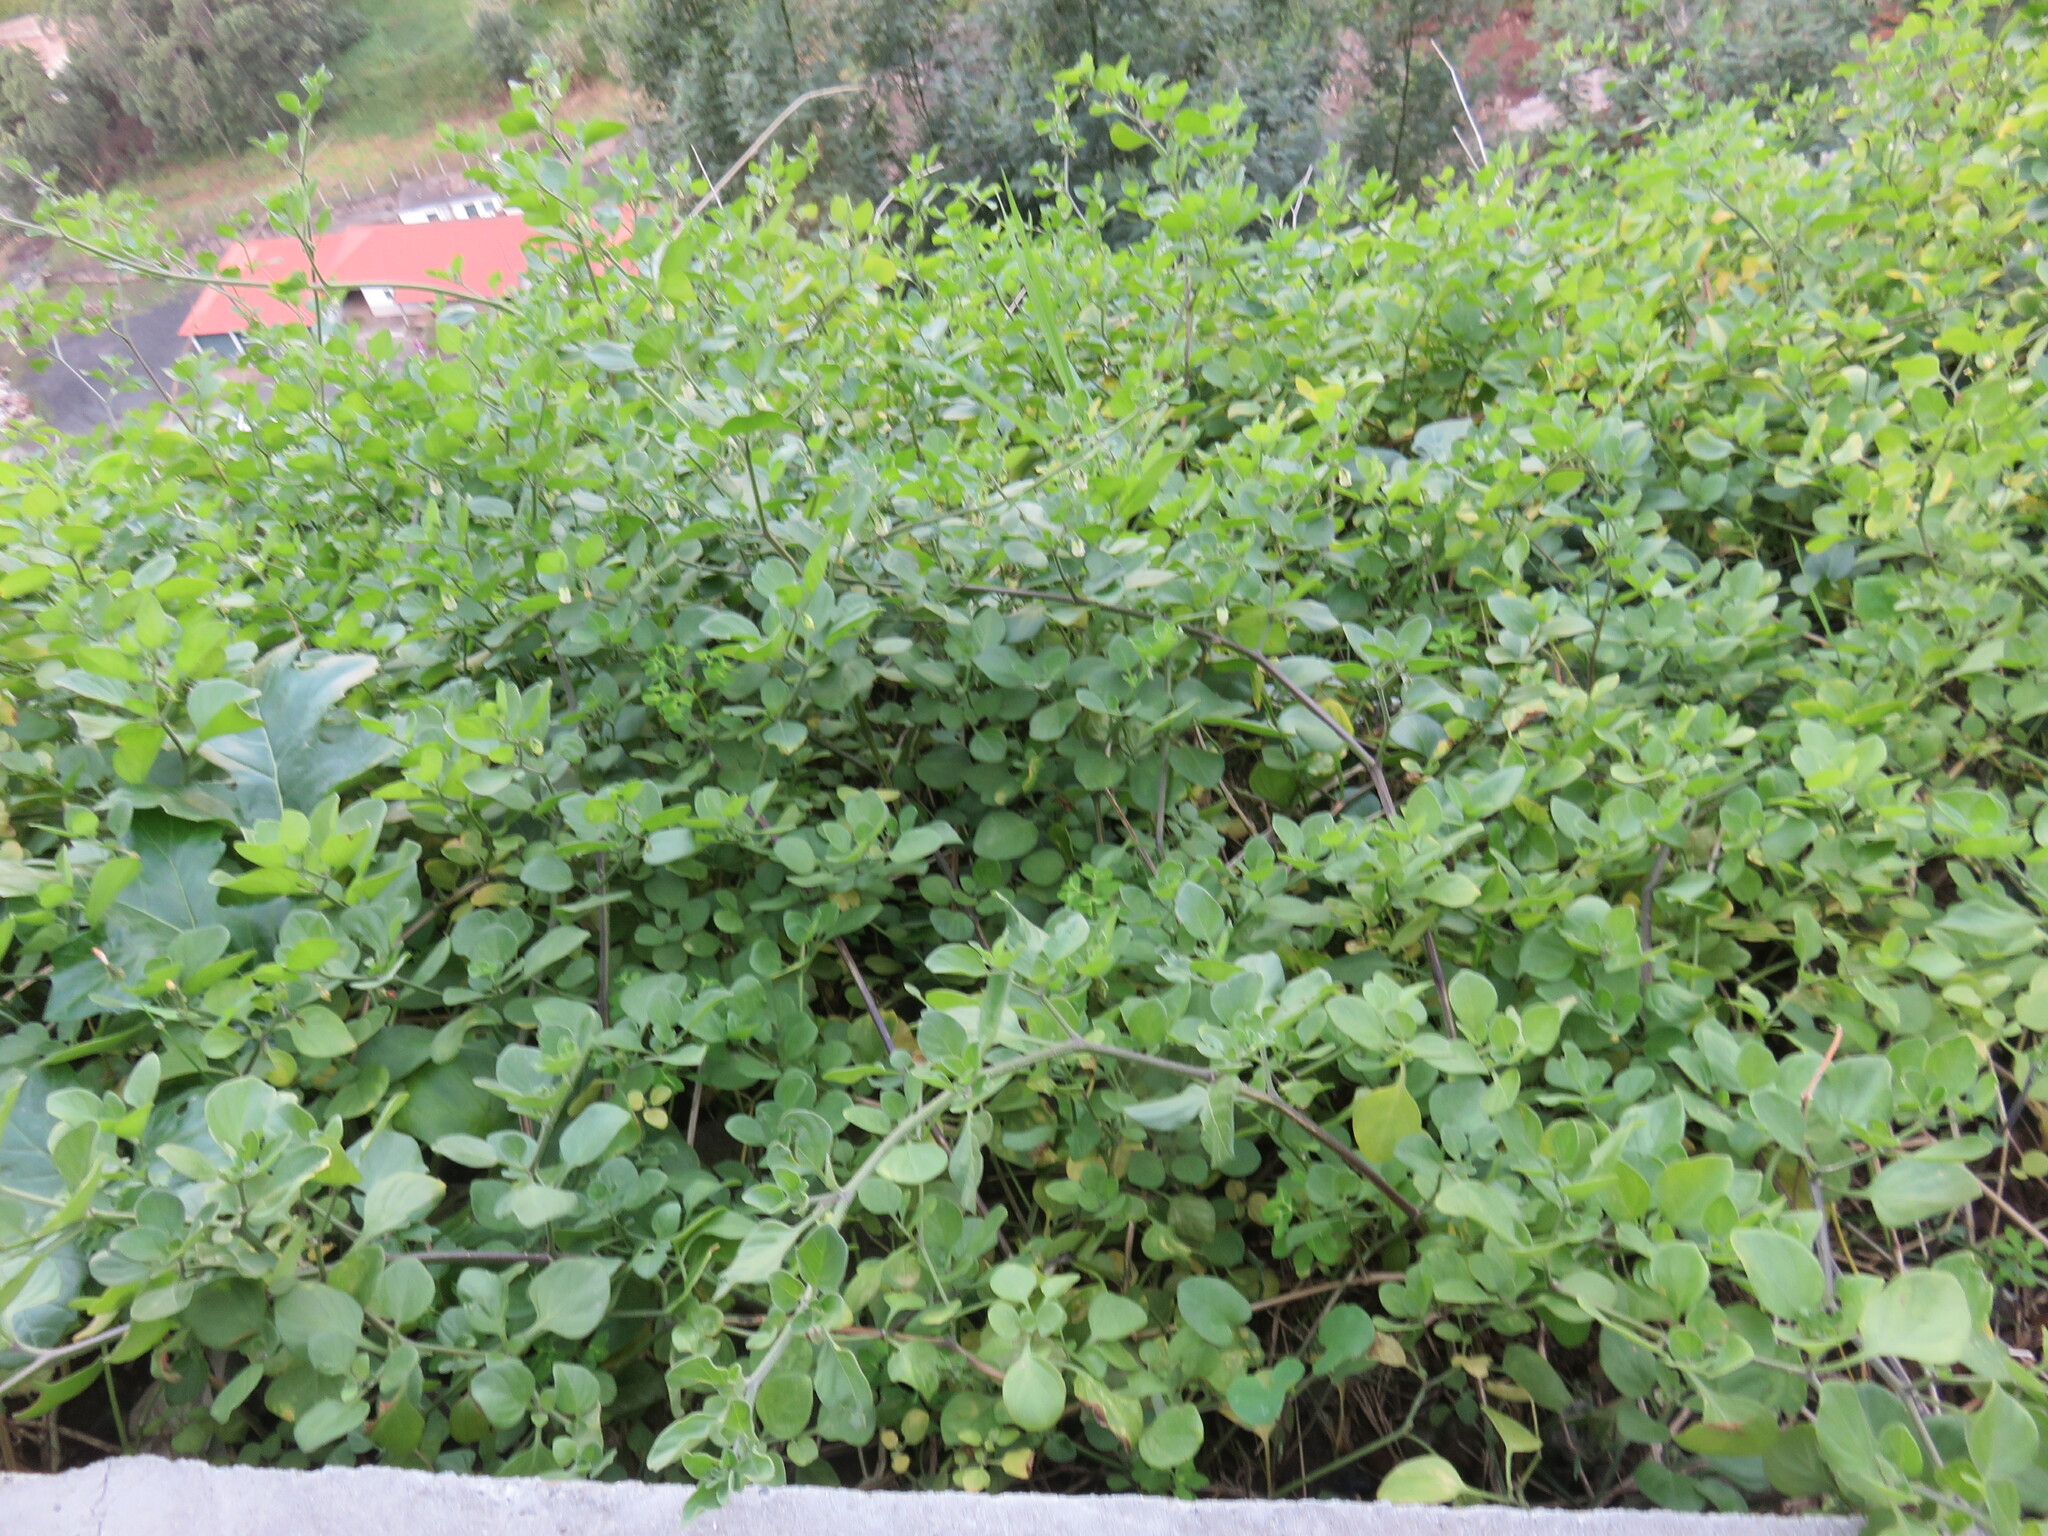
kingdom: Plantae
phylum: Tracheophyta
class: Magnoliopsida
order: Solanales
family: Solanaceae
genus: Salpichroa
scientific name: Salpichroa origanifolia
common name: Lily-of-the-valley-vine
